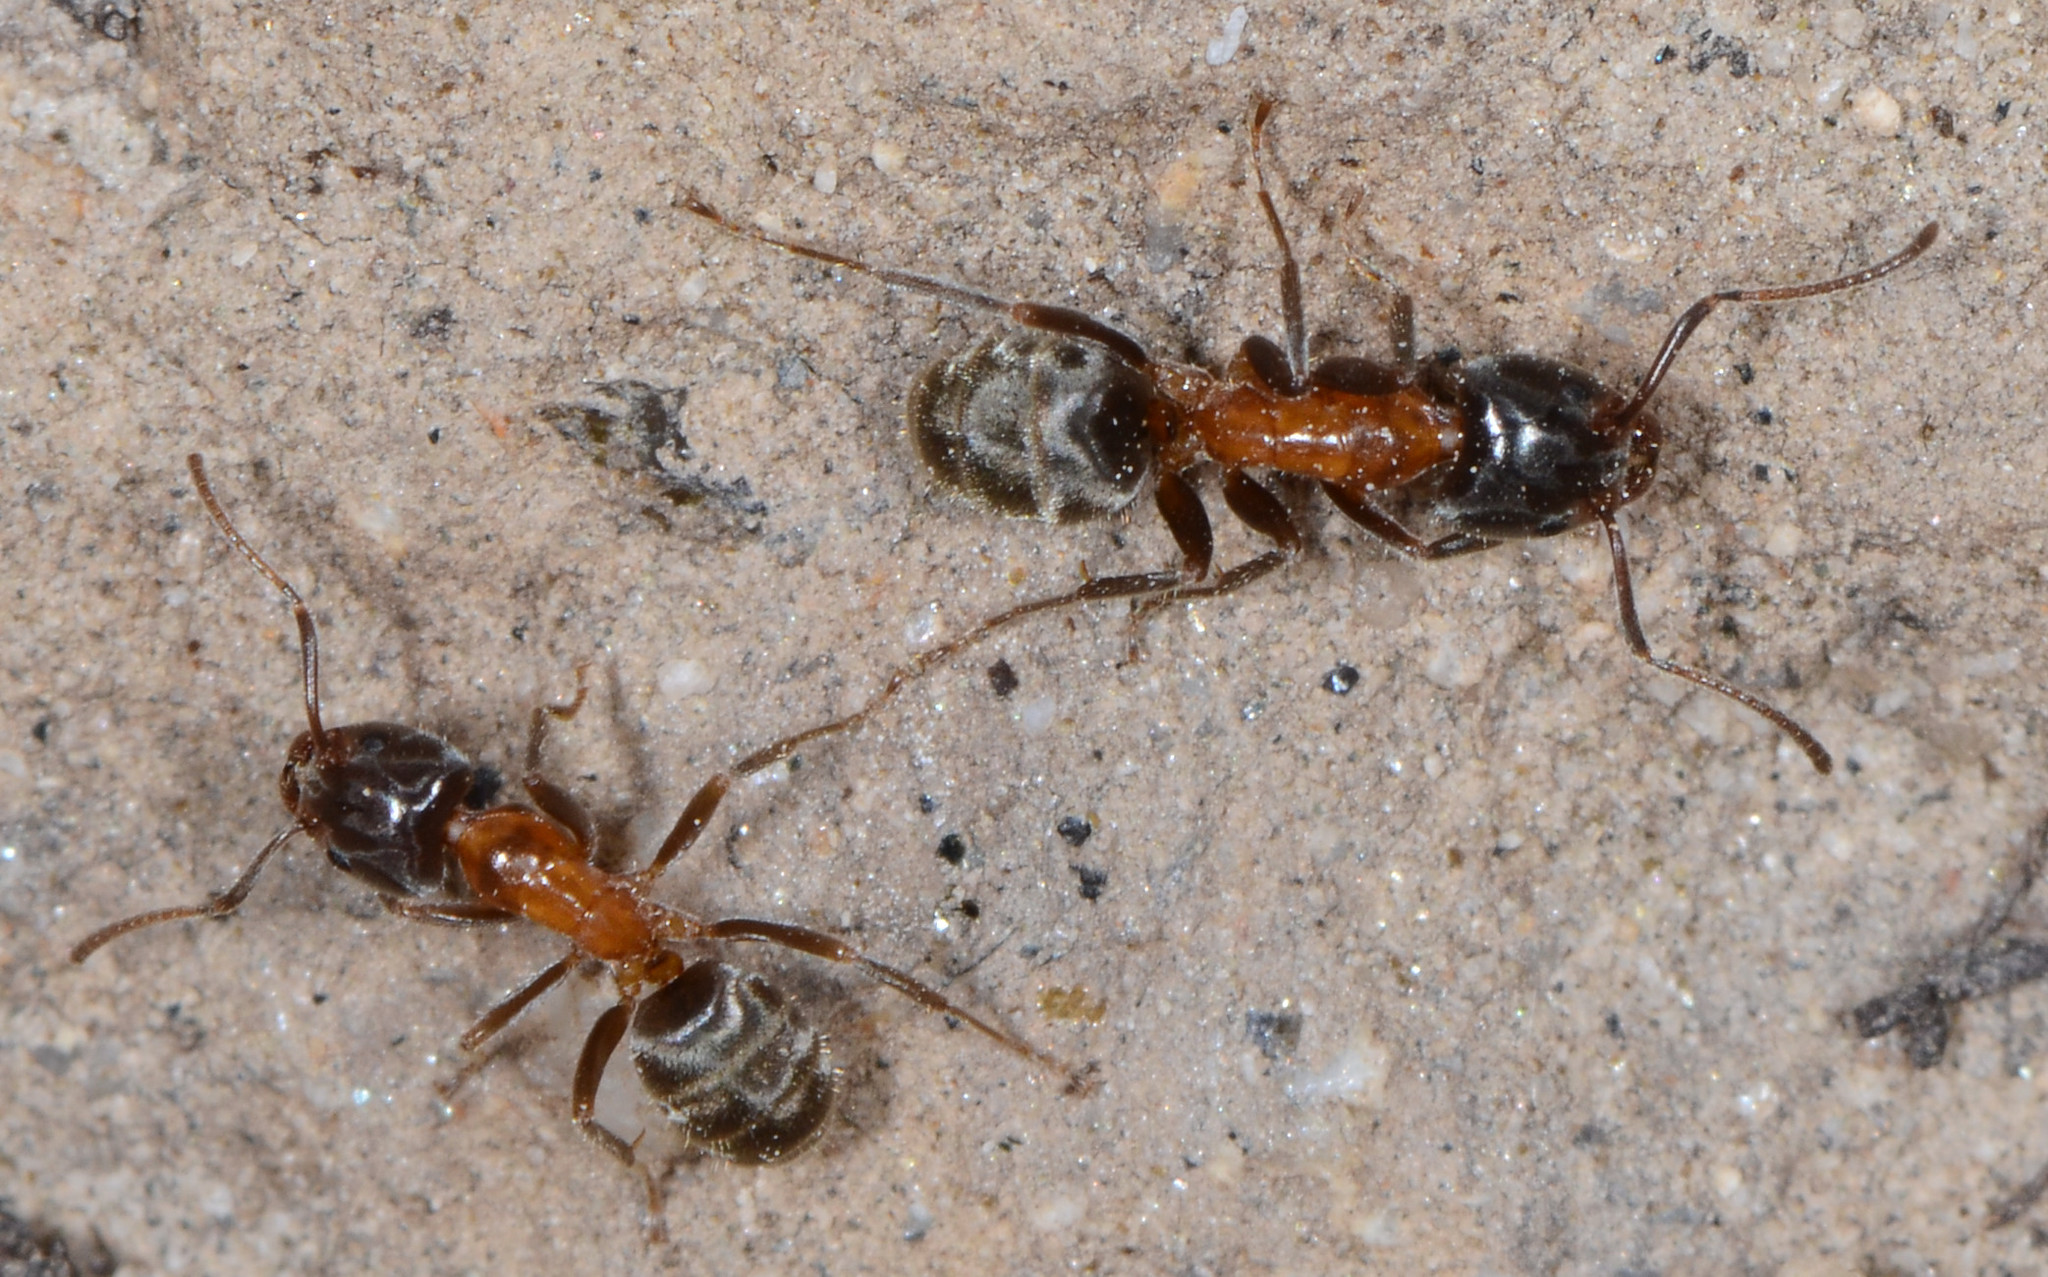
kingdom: Animalia
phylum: Arthropoda
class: Insecta
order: Hymenoptera
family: Formicidae
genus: Liometopum
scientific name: Liometopum occidentale
